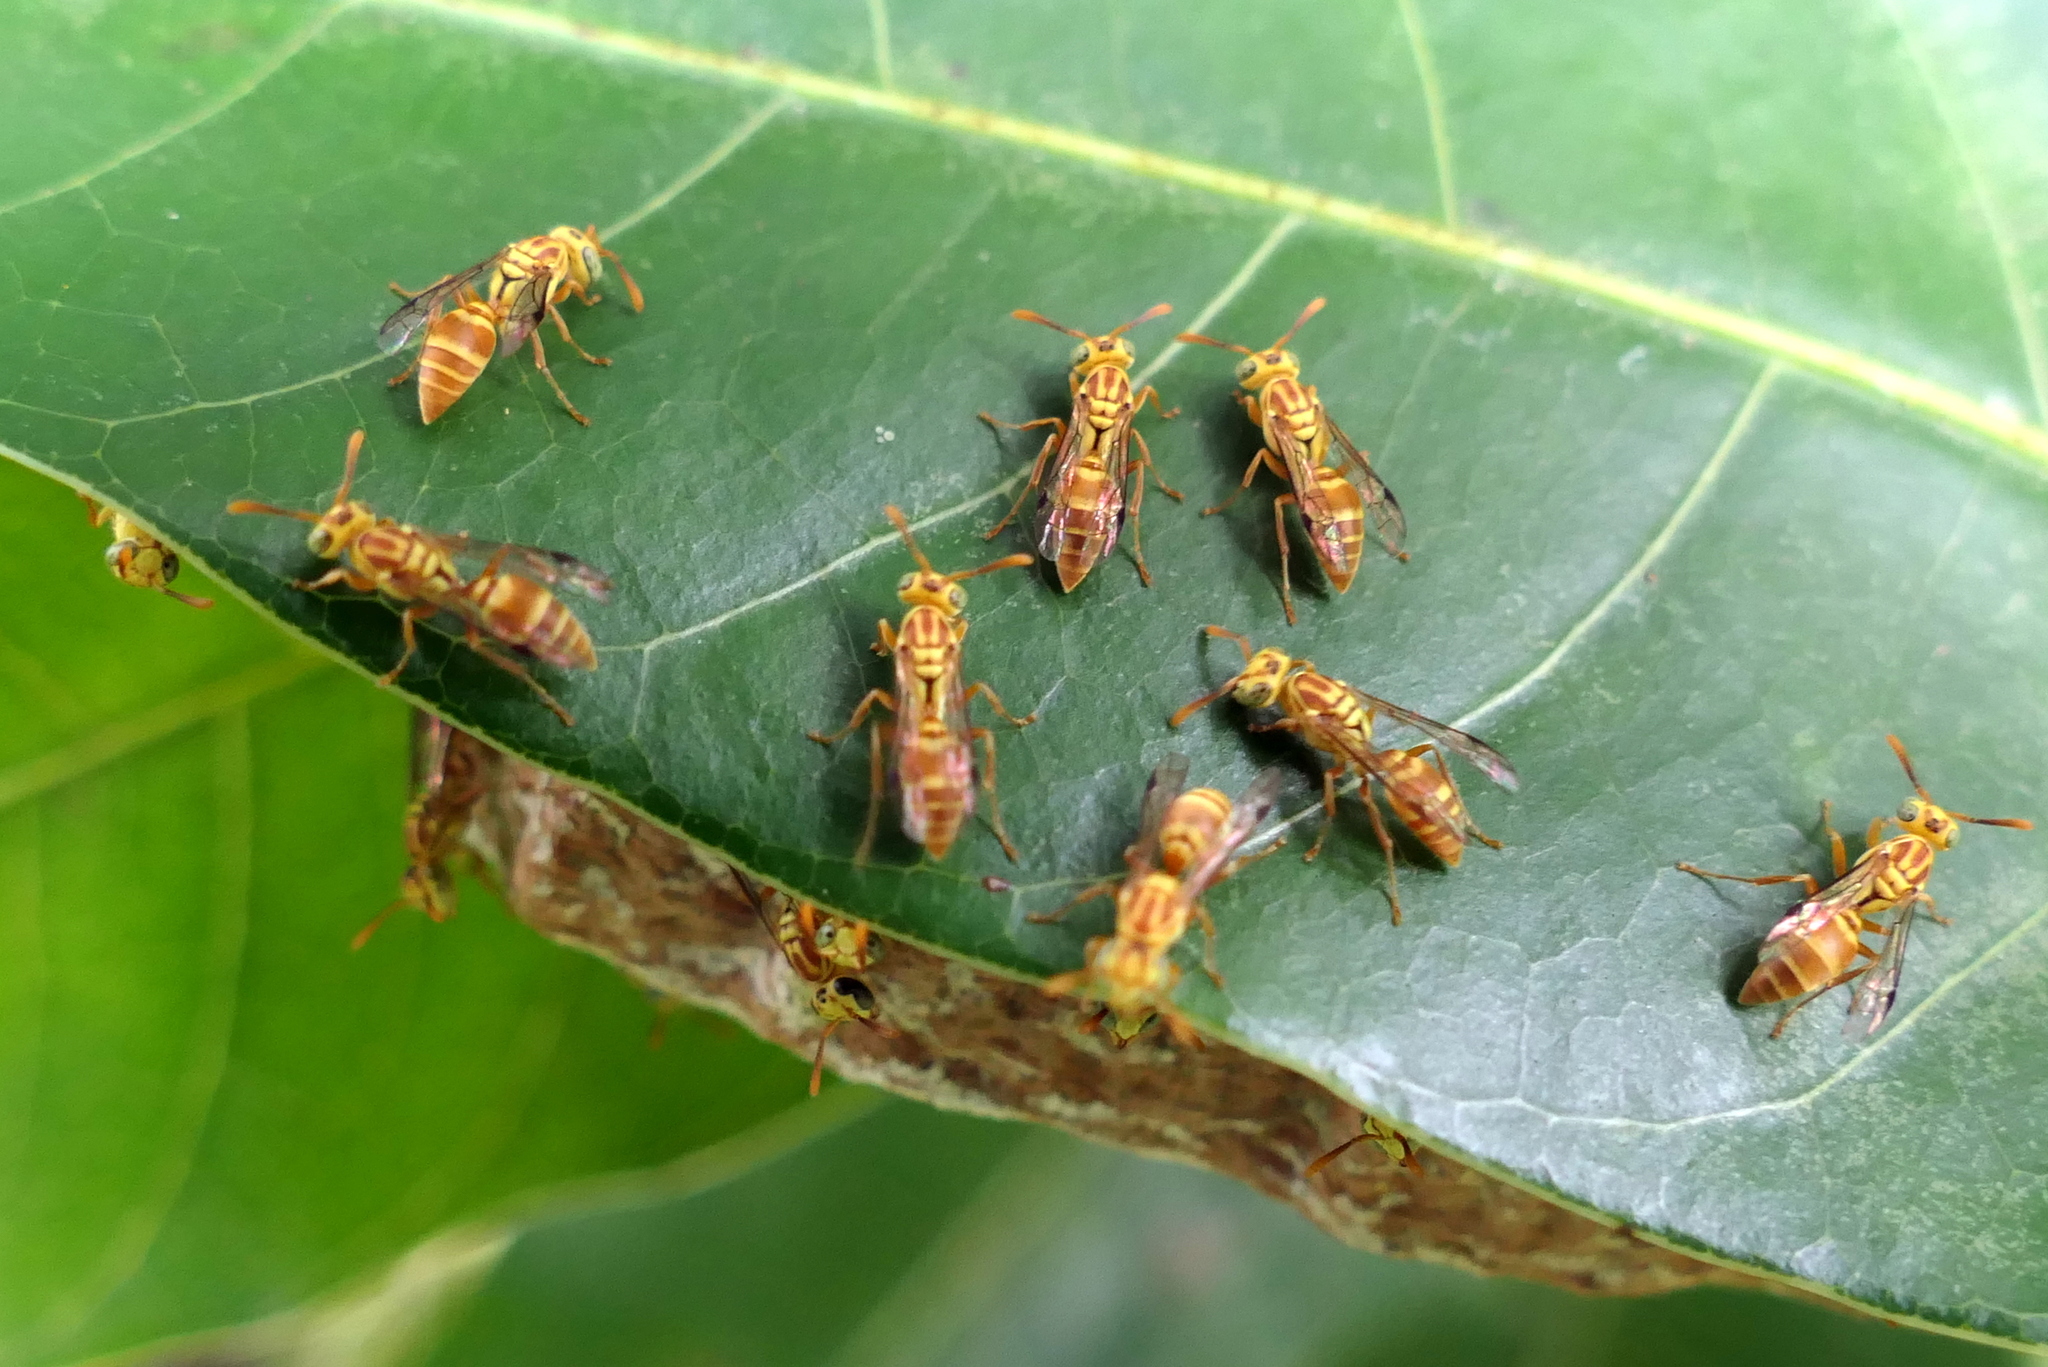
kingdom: Animalia
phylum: Arthropoda
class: Insecta
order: Hymenoptera
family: Vespidae
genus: Protopolybia
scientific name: Protopolybia potiguara
